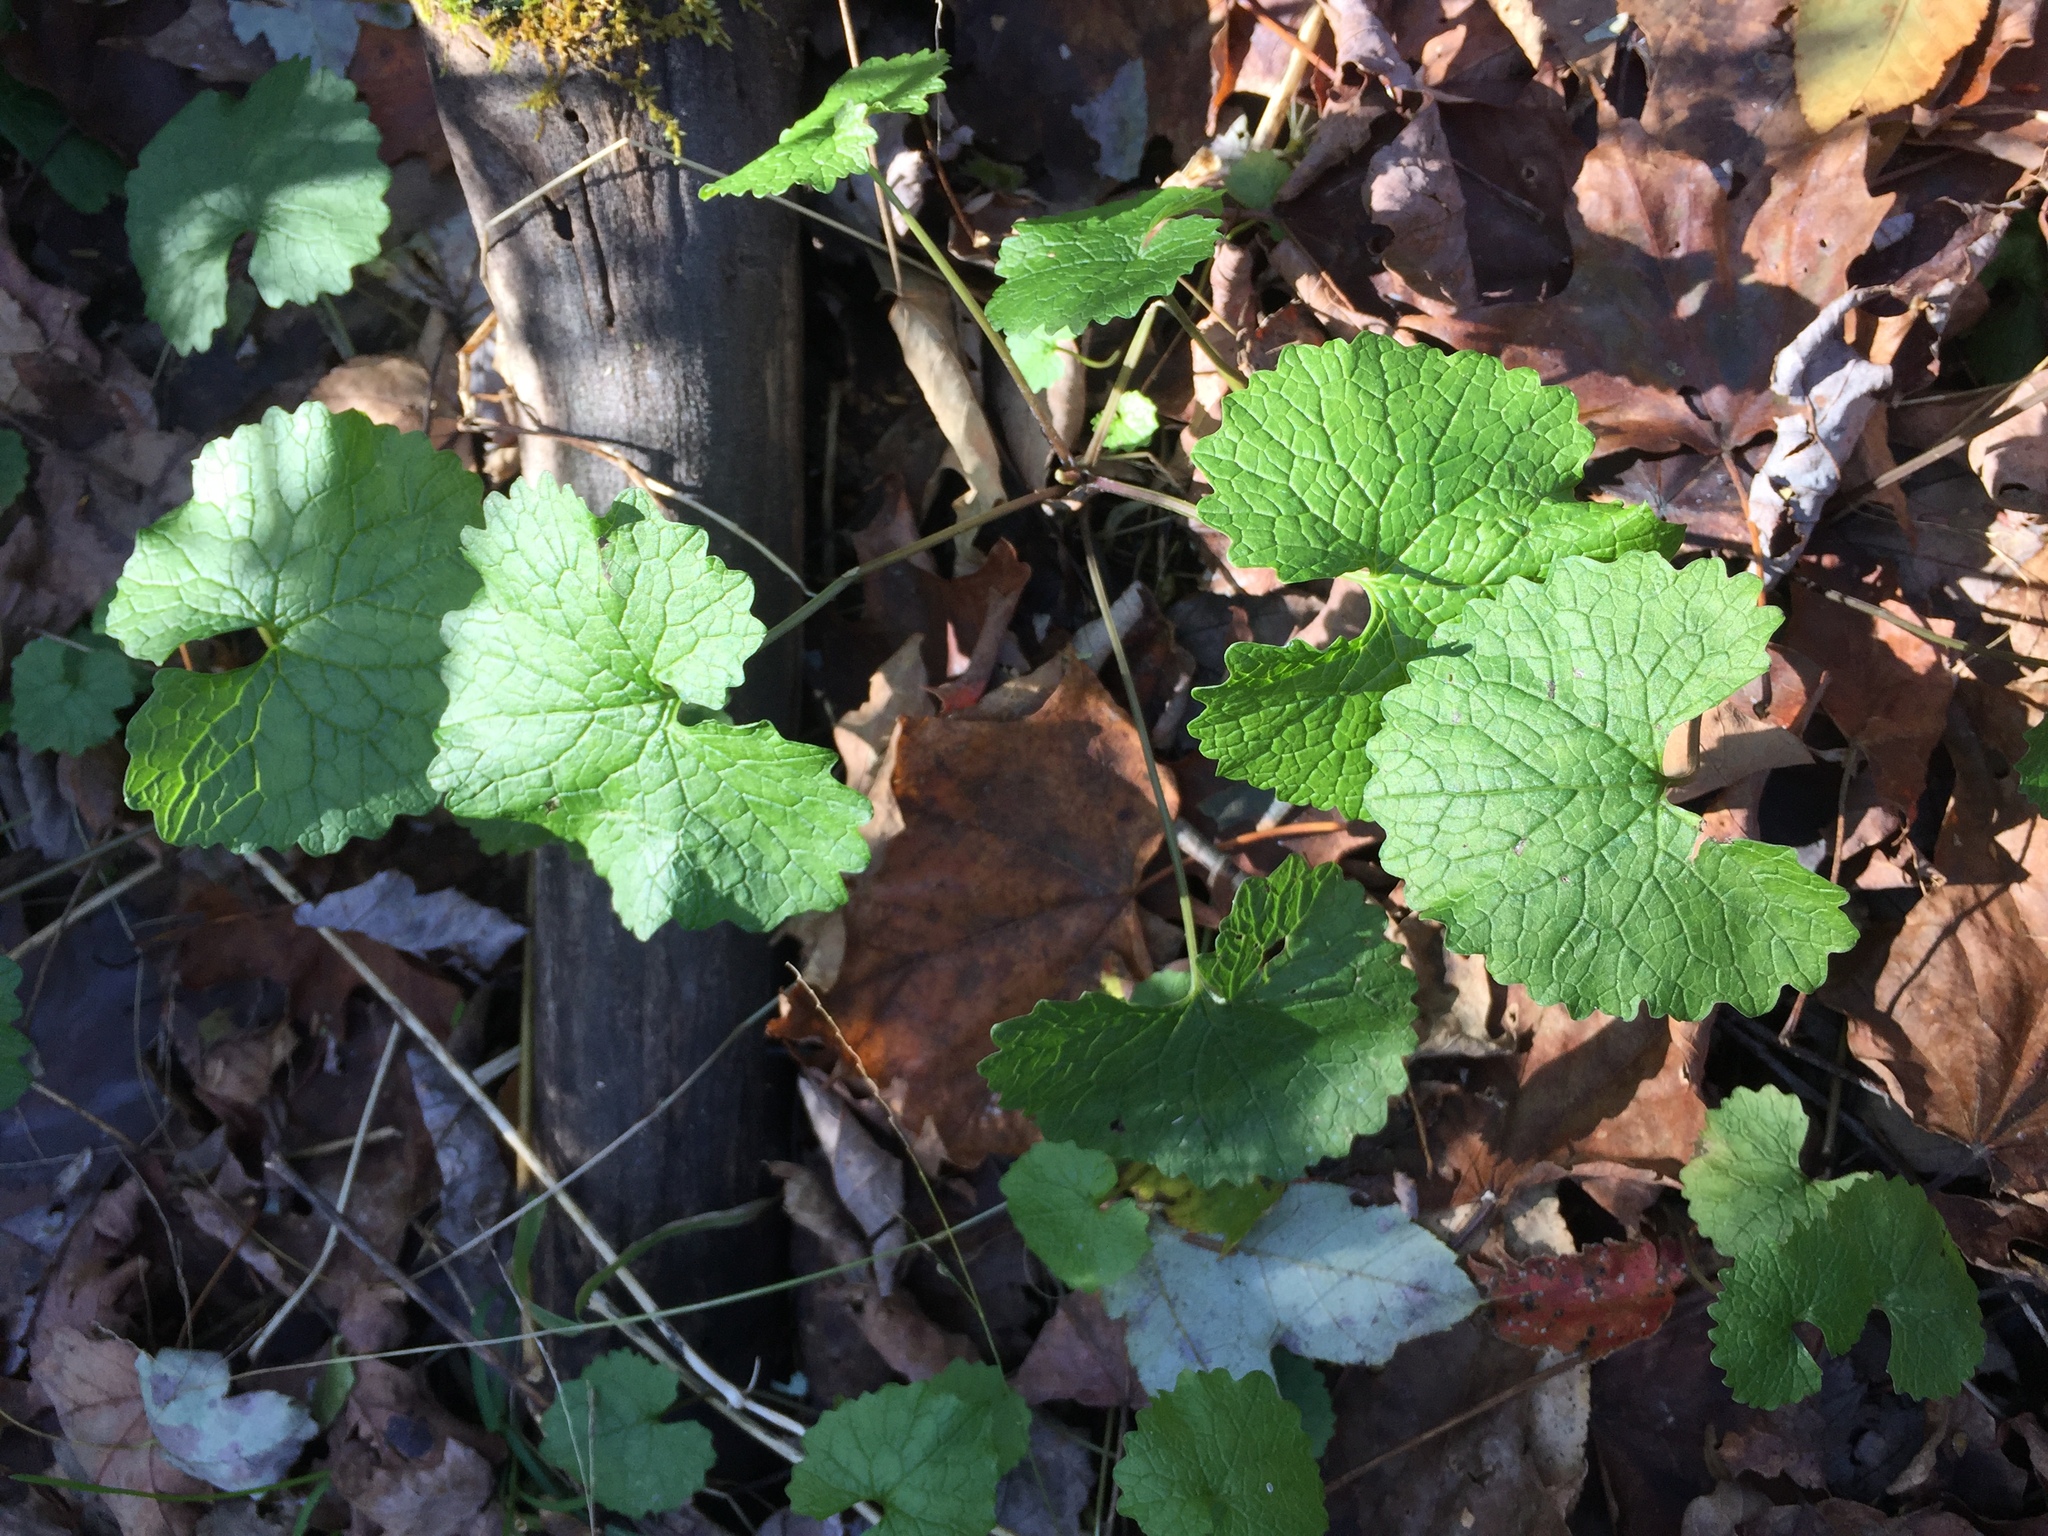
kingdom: Plantae
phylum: Tracheophyta
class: Magnoliopsida
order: Brassicales
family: Brassicaceae
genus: Alliaria
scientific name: Alliaria petiolata
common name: Garlic mustard
